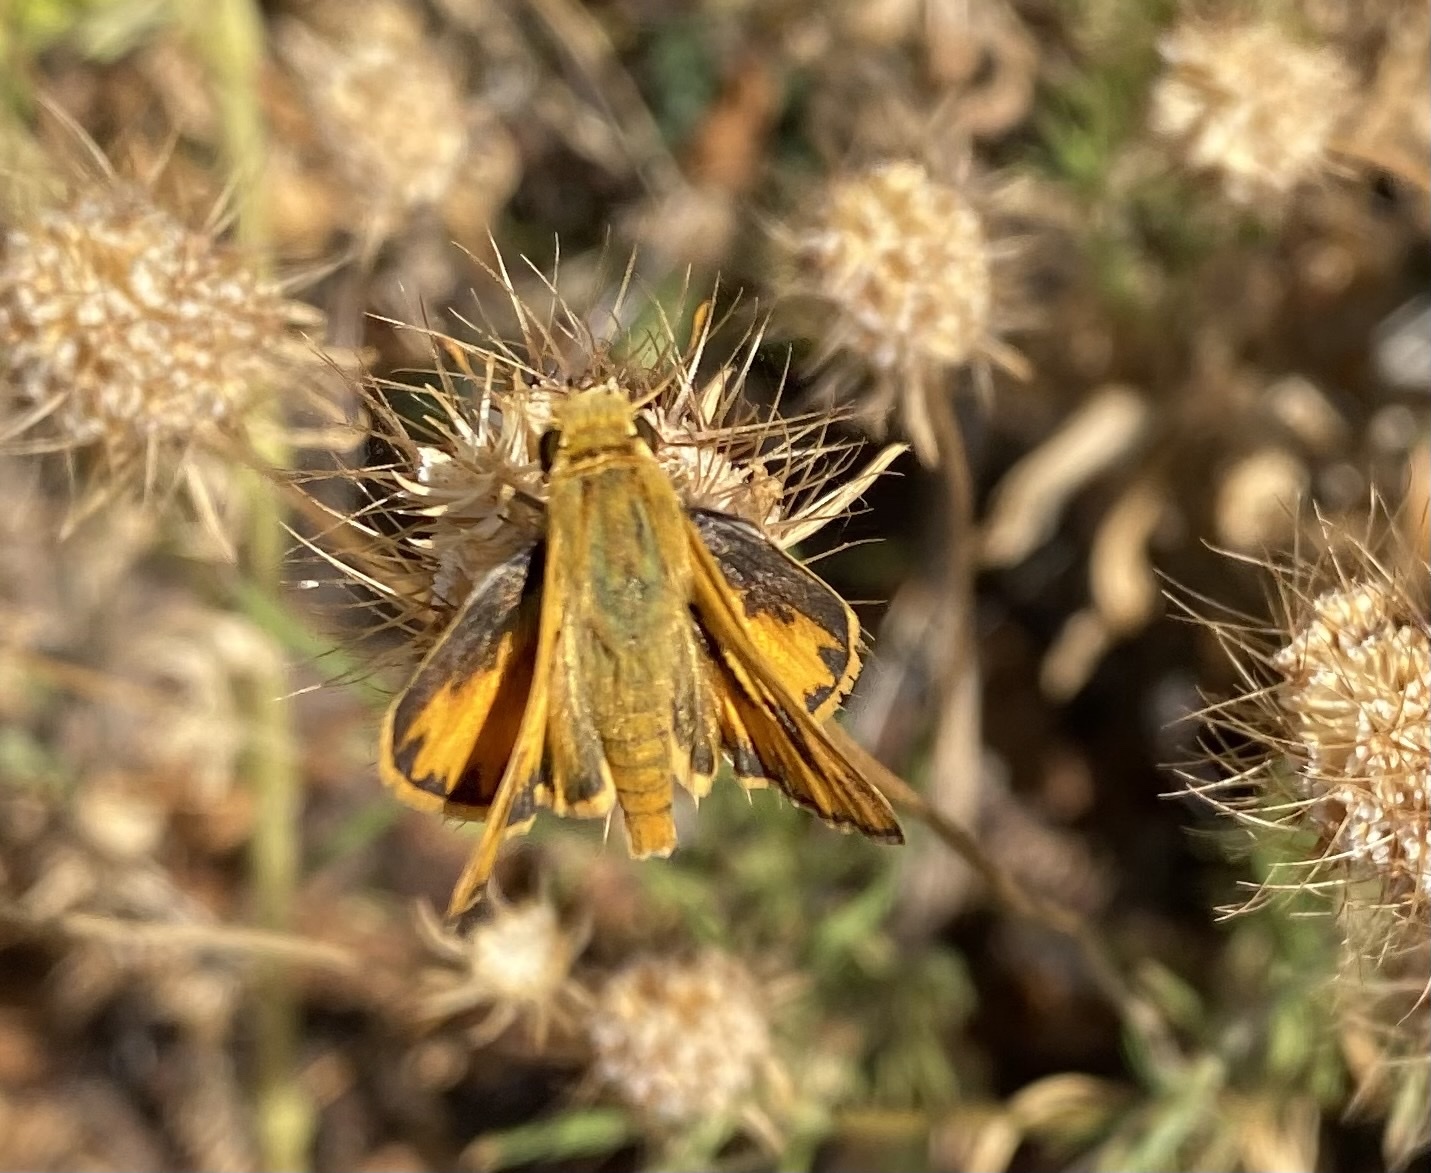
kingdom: Animalia
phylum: Arthropoda
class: Insecta
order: Lepidoptera
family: Hesperiidae
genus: Hylephila
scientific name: Hylephila phyleus
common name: Fiery skipper
